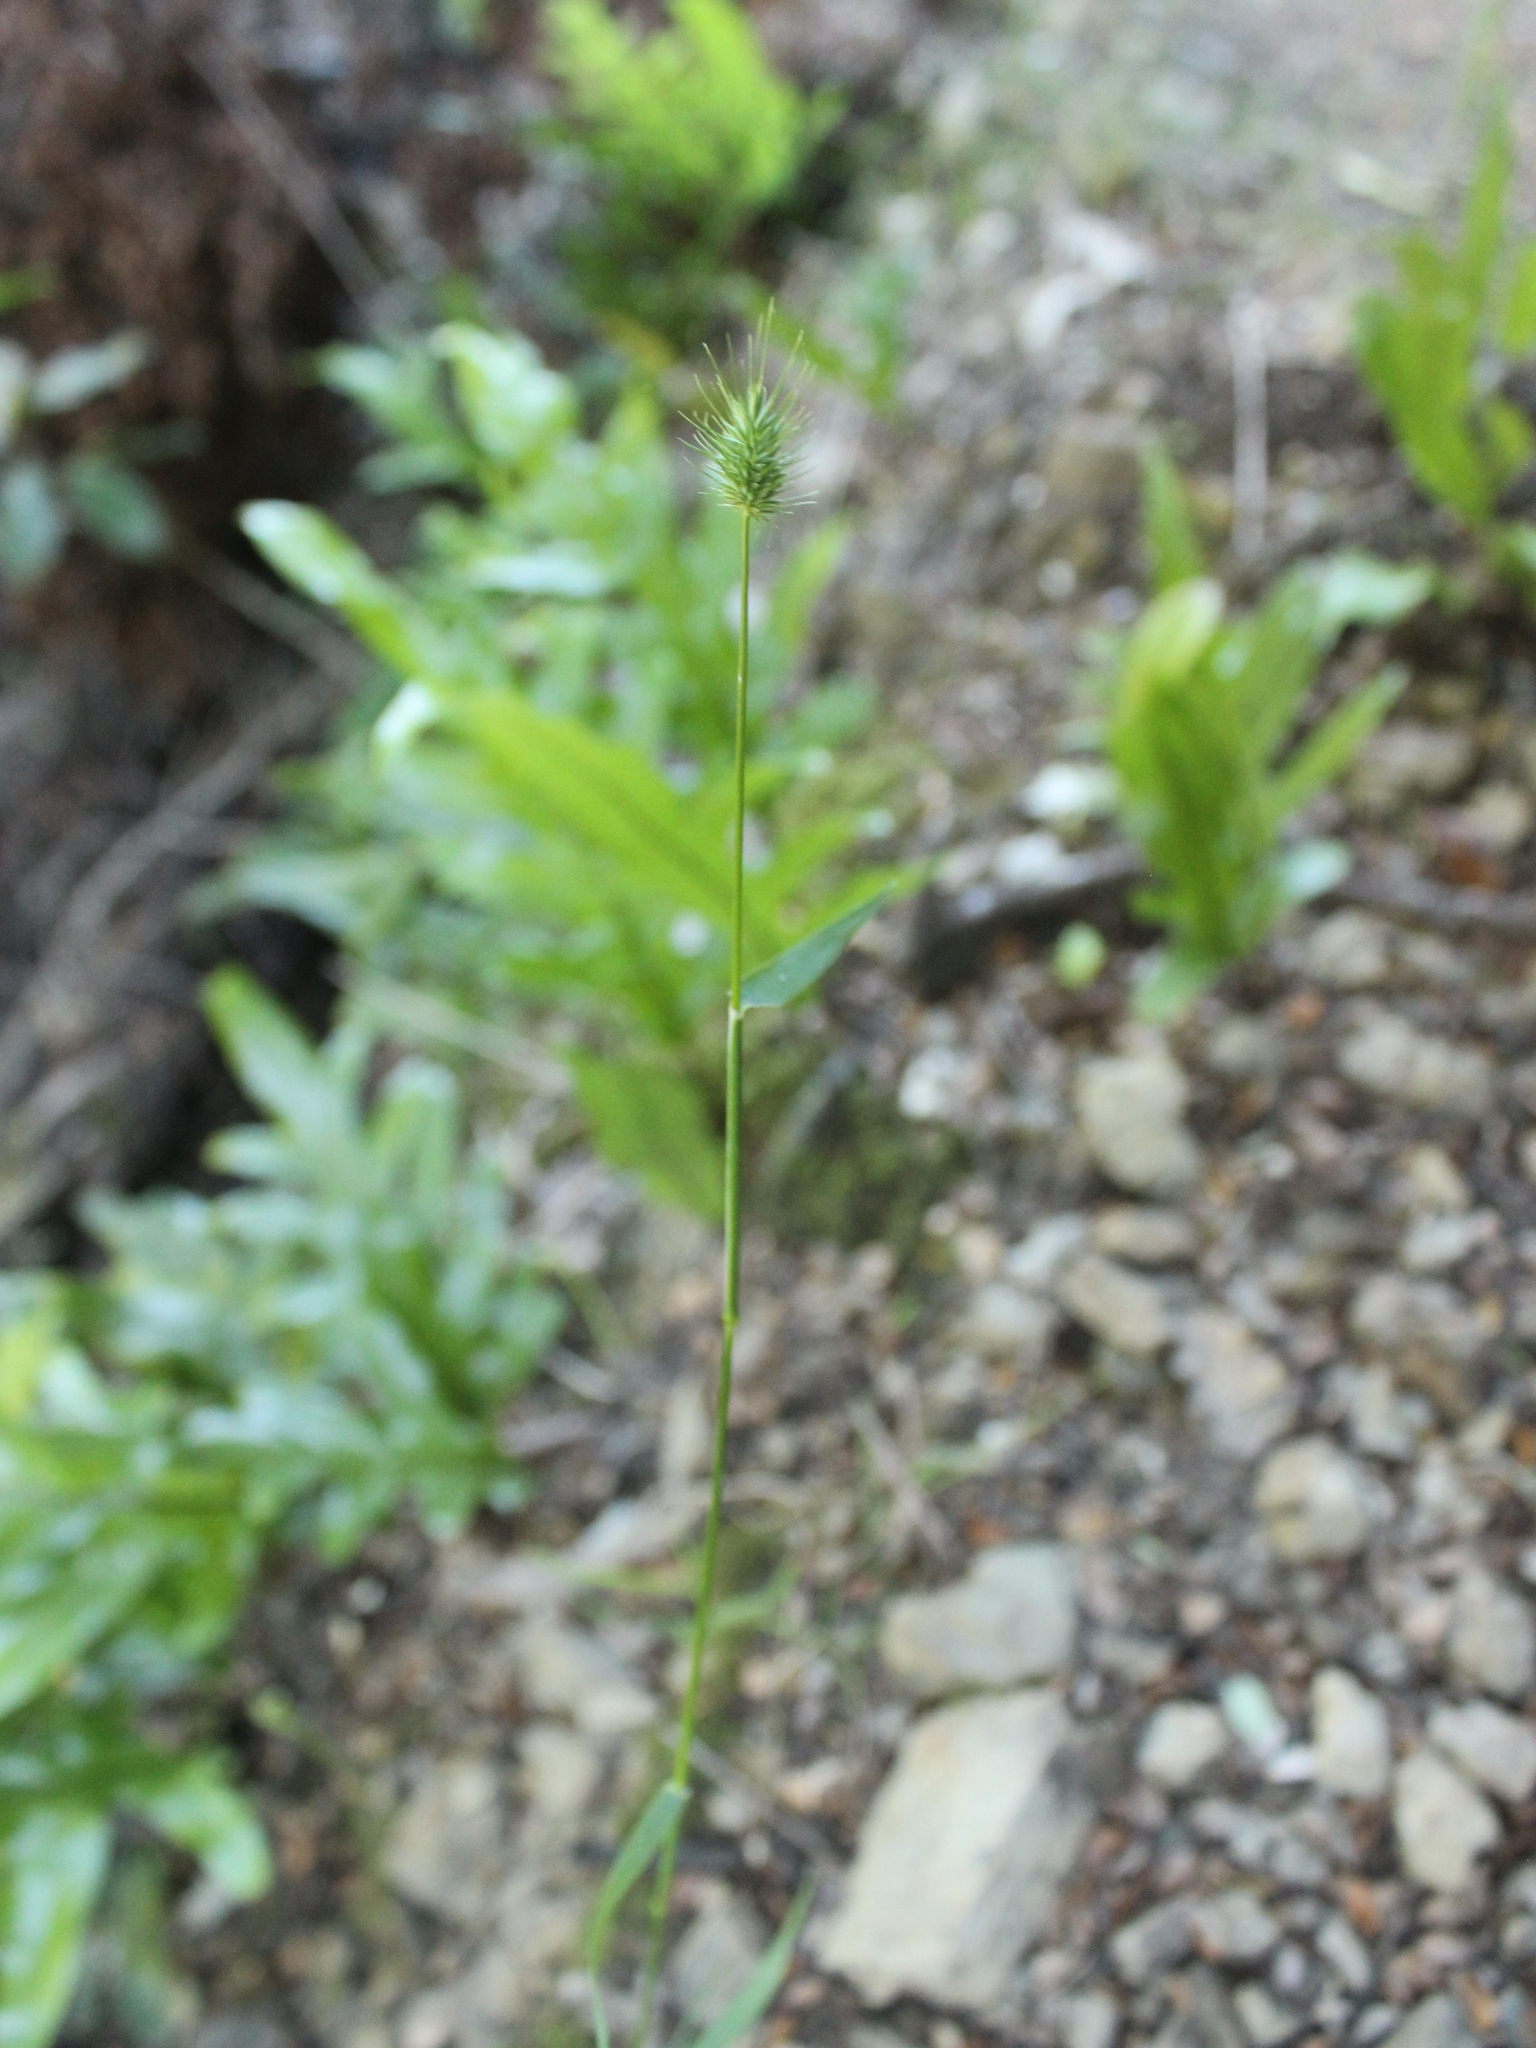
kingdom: Plantae
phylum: Tracheophyta
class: Liliopsida
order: Poales
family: Poaceae
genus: Echinopogon
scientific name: Echinopogon ovatus
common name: Hedgehog-grass
